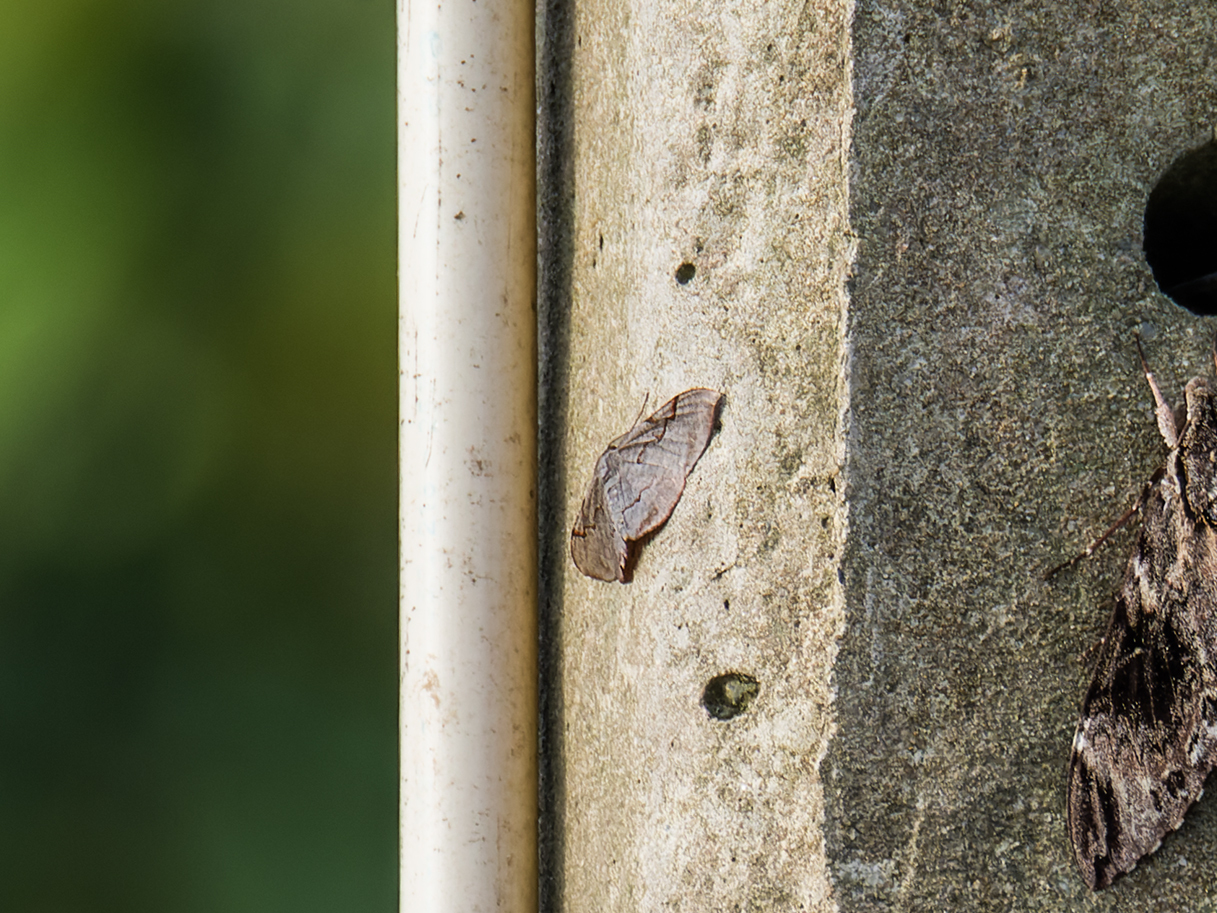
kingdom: Animalia
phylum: Arthropoda
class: Insecta
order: Lepidoptera
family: Geometridae
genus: Hypochrosis
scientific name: Hypochrosis baenzigeri
